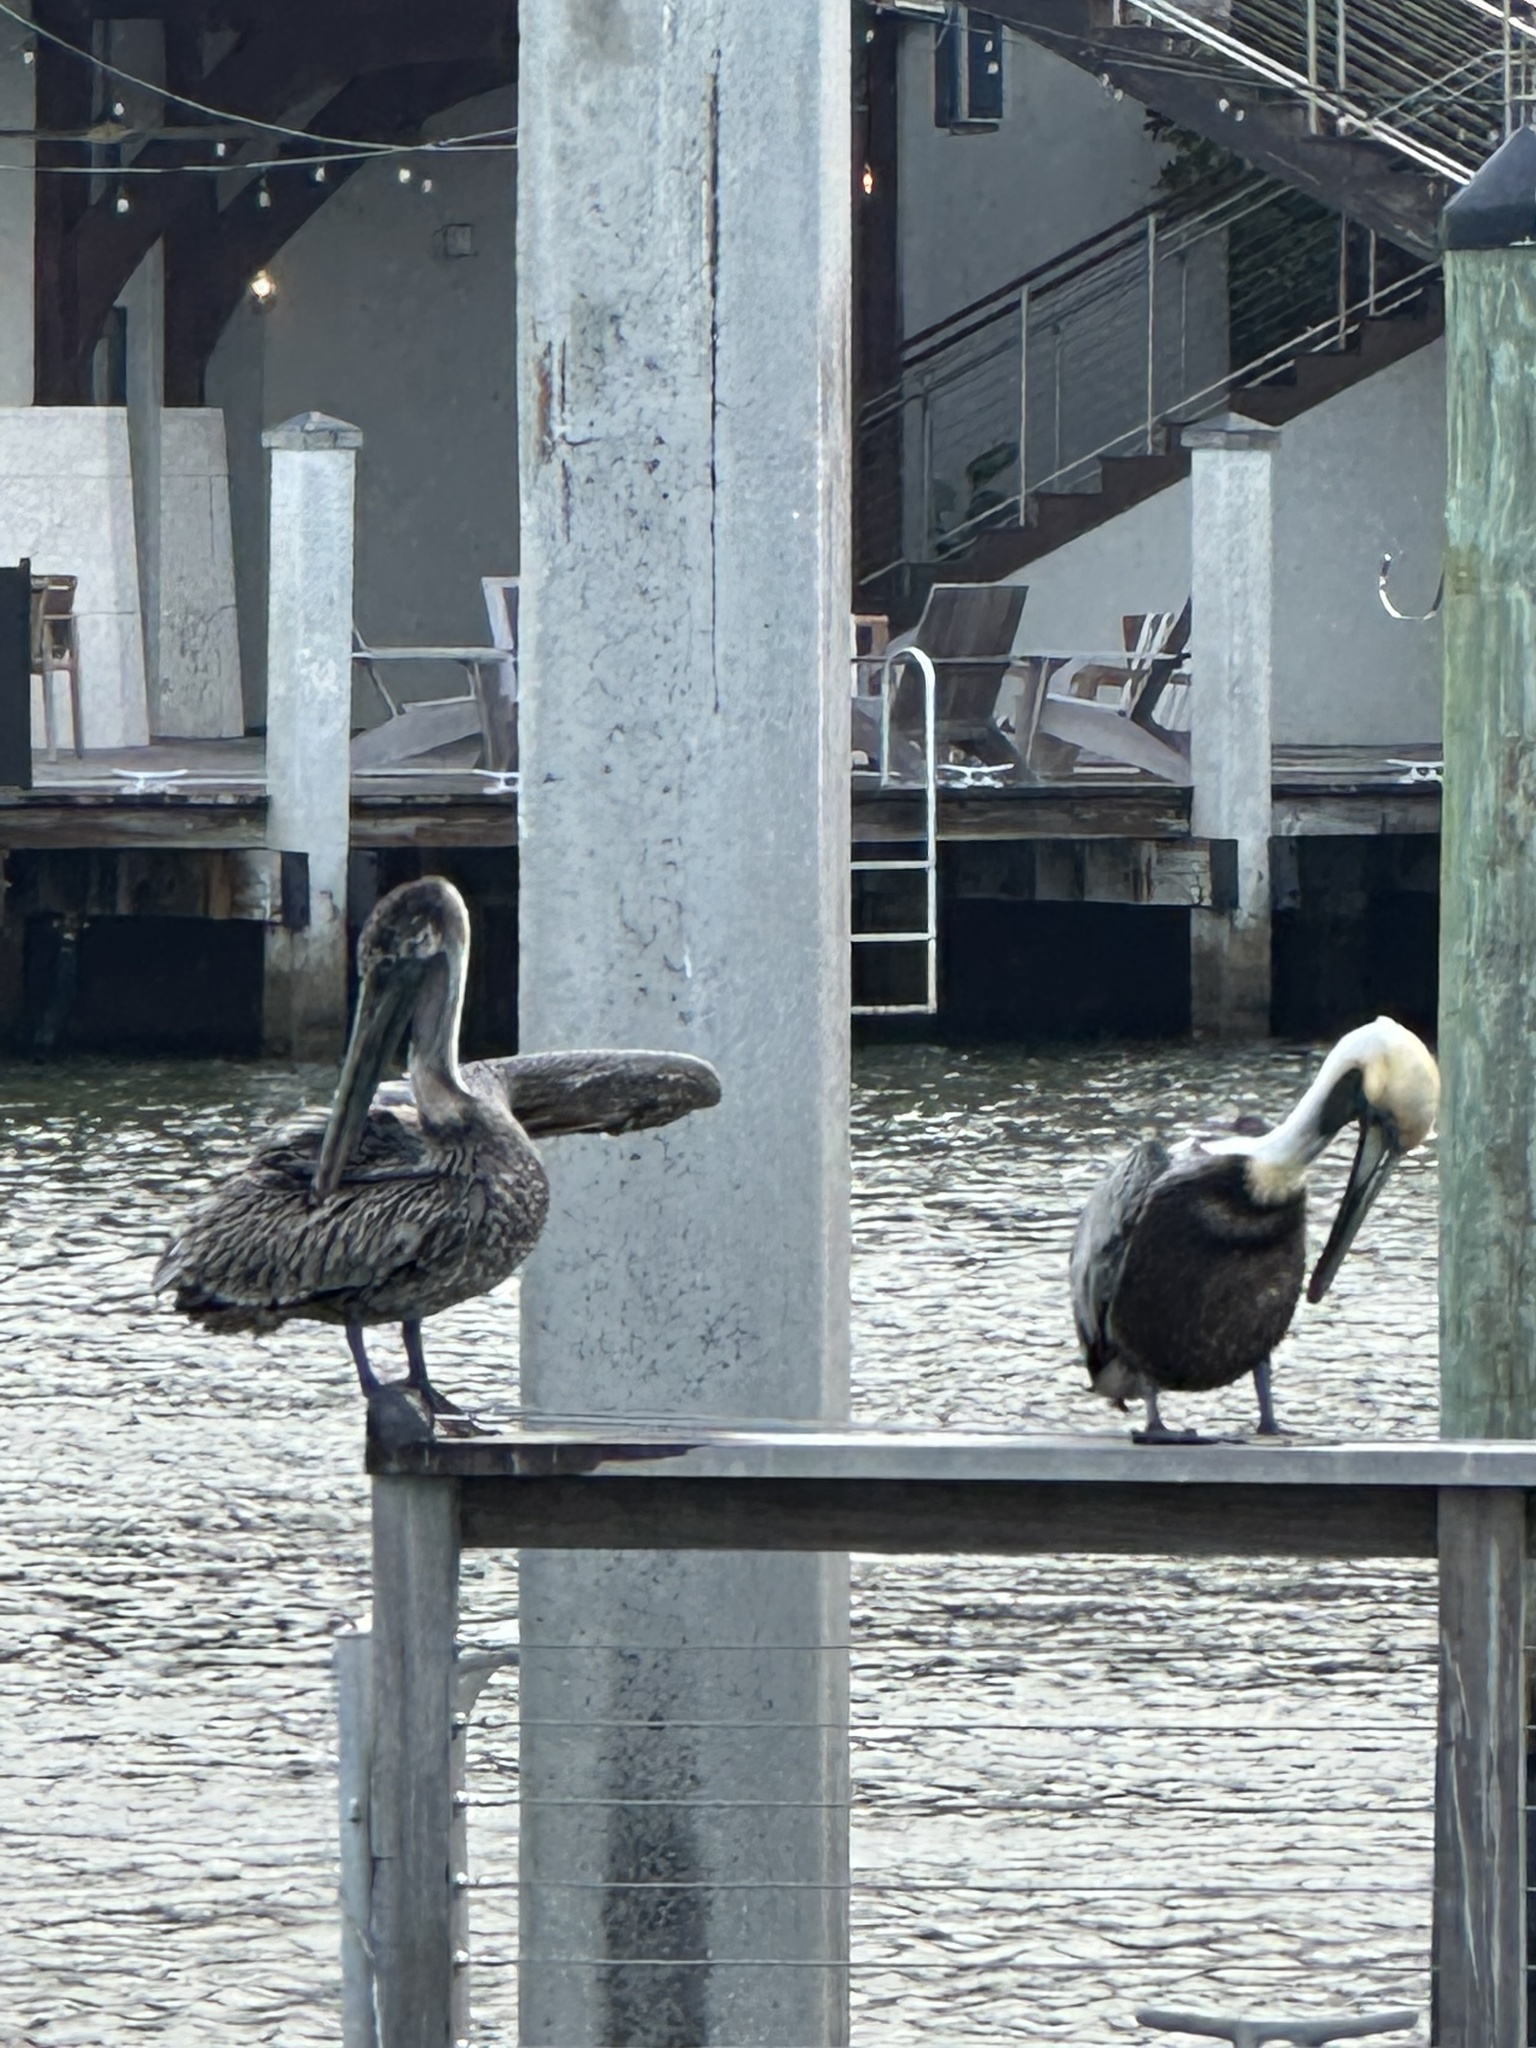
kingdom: Animalia
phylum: Chordata
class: Aves
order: Pelecaniformes
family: Pelecanidae
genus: Pelecanus
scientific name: Pelecanus occidentalis
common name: Brown pelican
